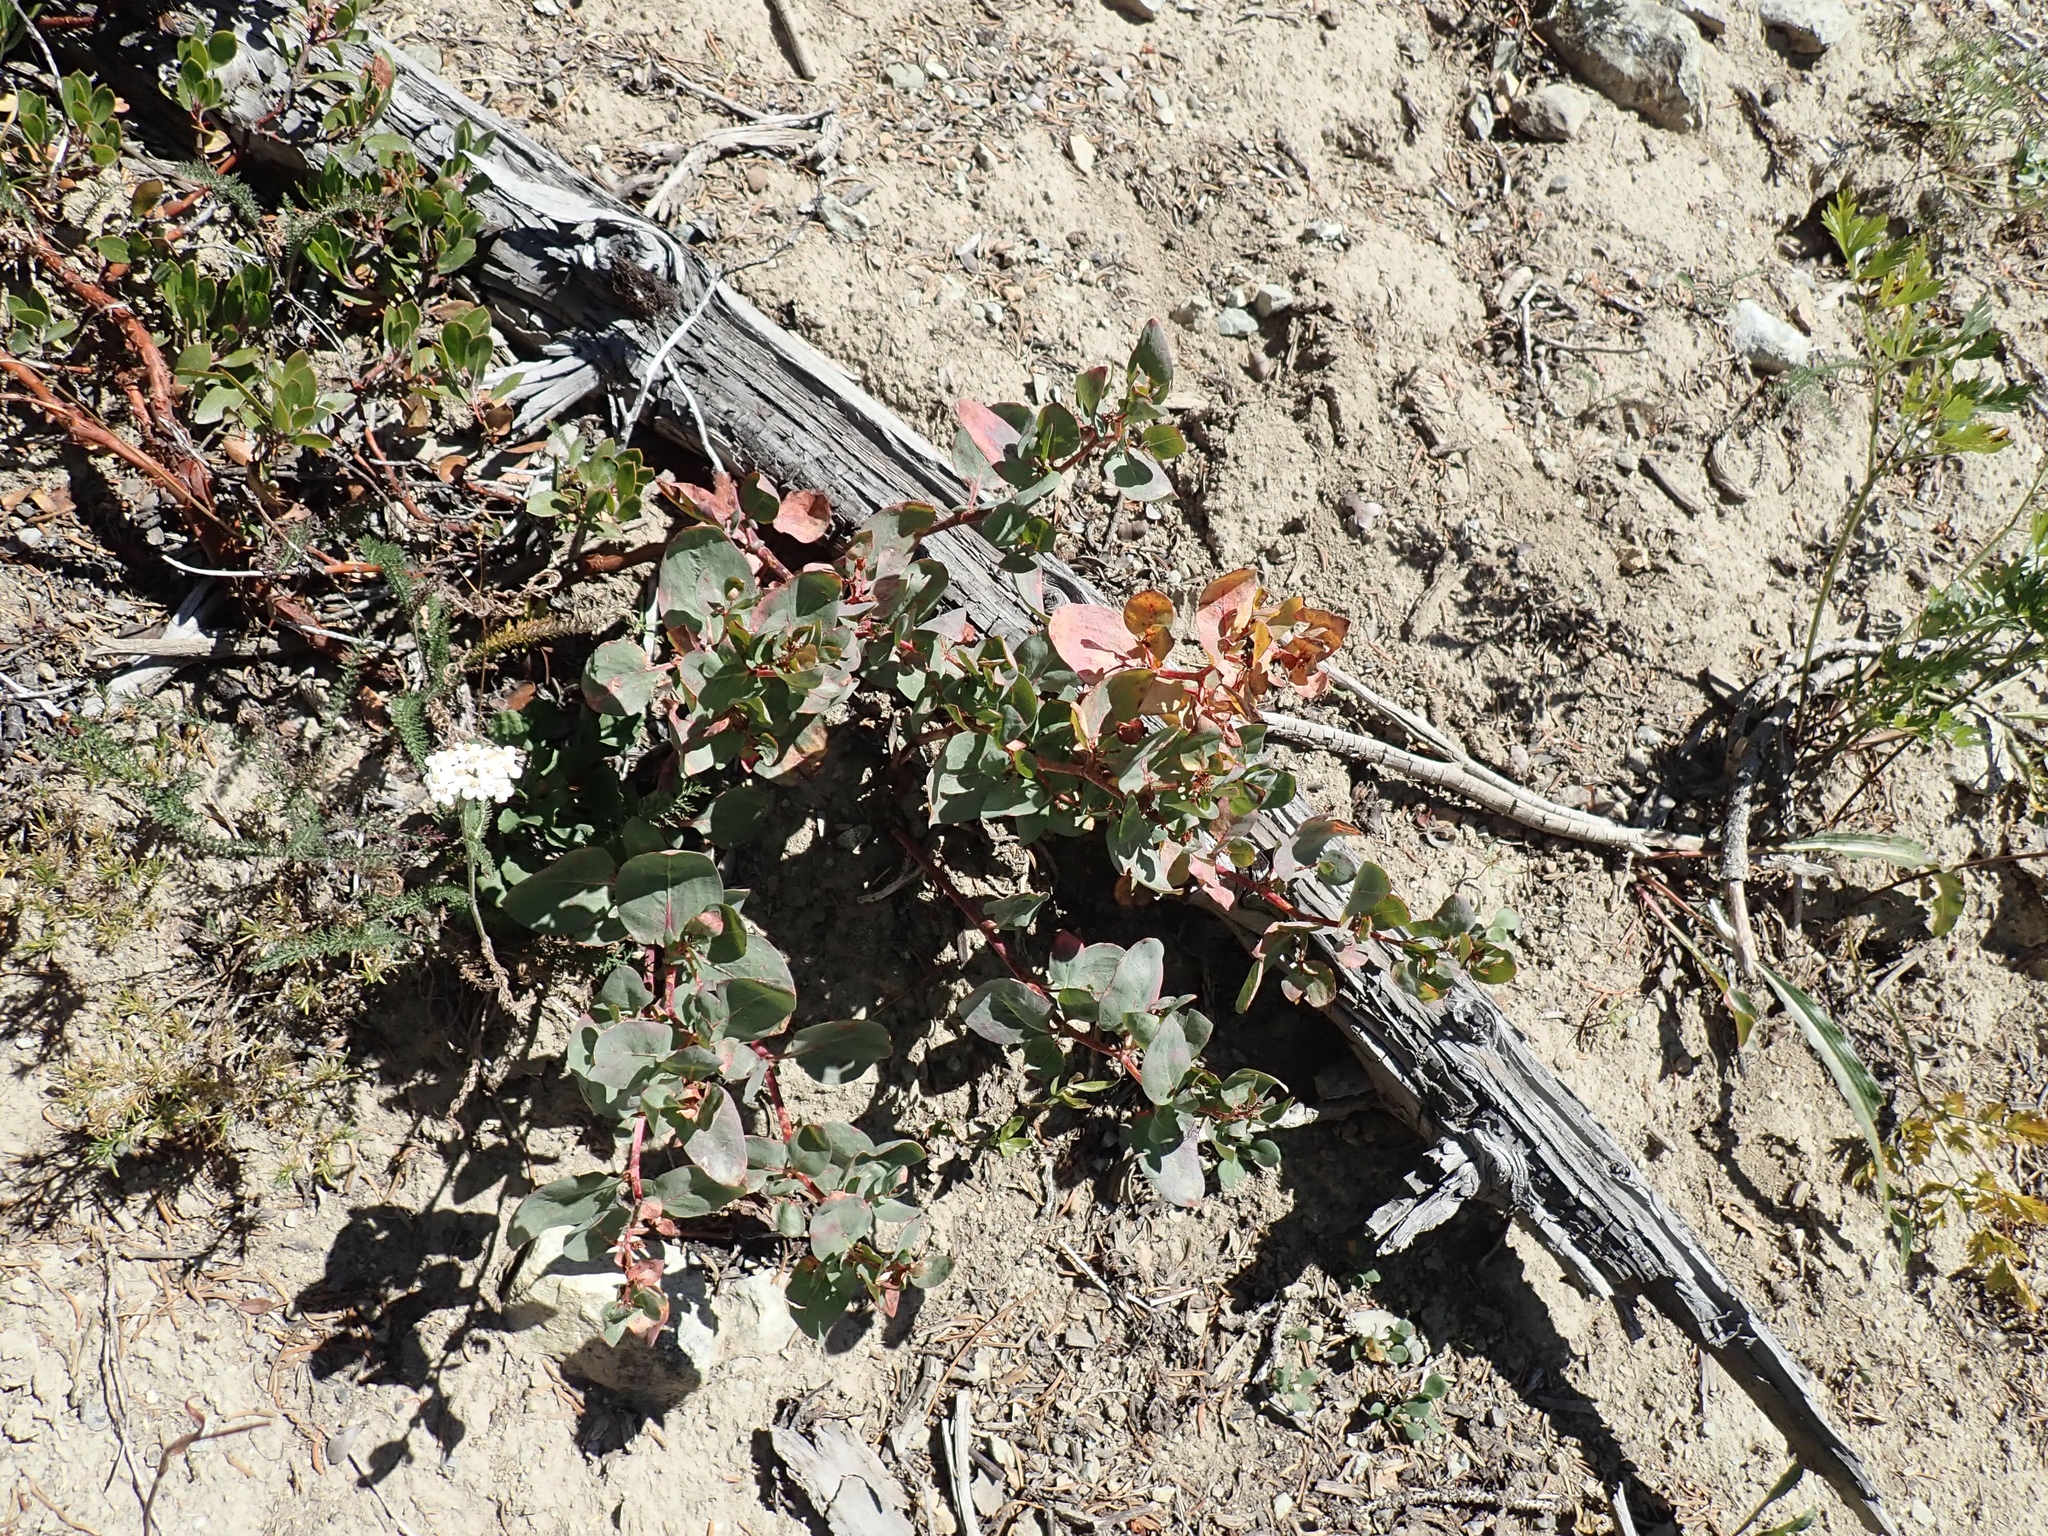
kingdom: Plantae
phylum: Tracheophyta
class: Magnoliopsida
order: Caryophyllales
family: Polygonaceae
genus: Koenigia
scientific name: Koenigia davisiae
